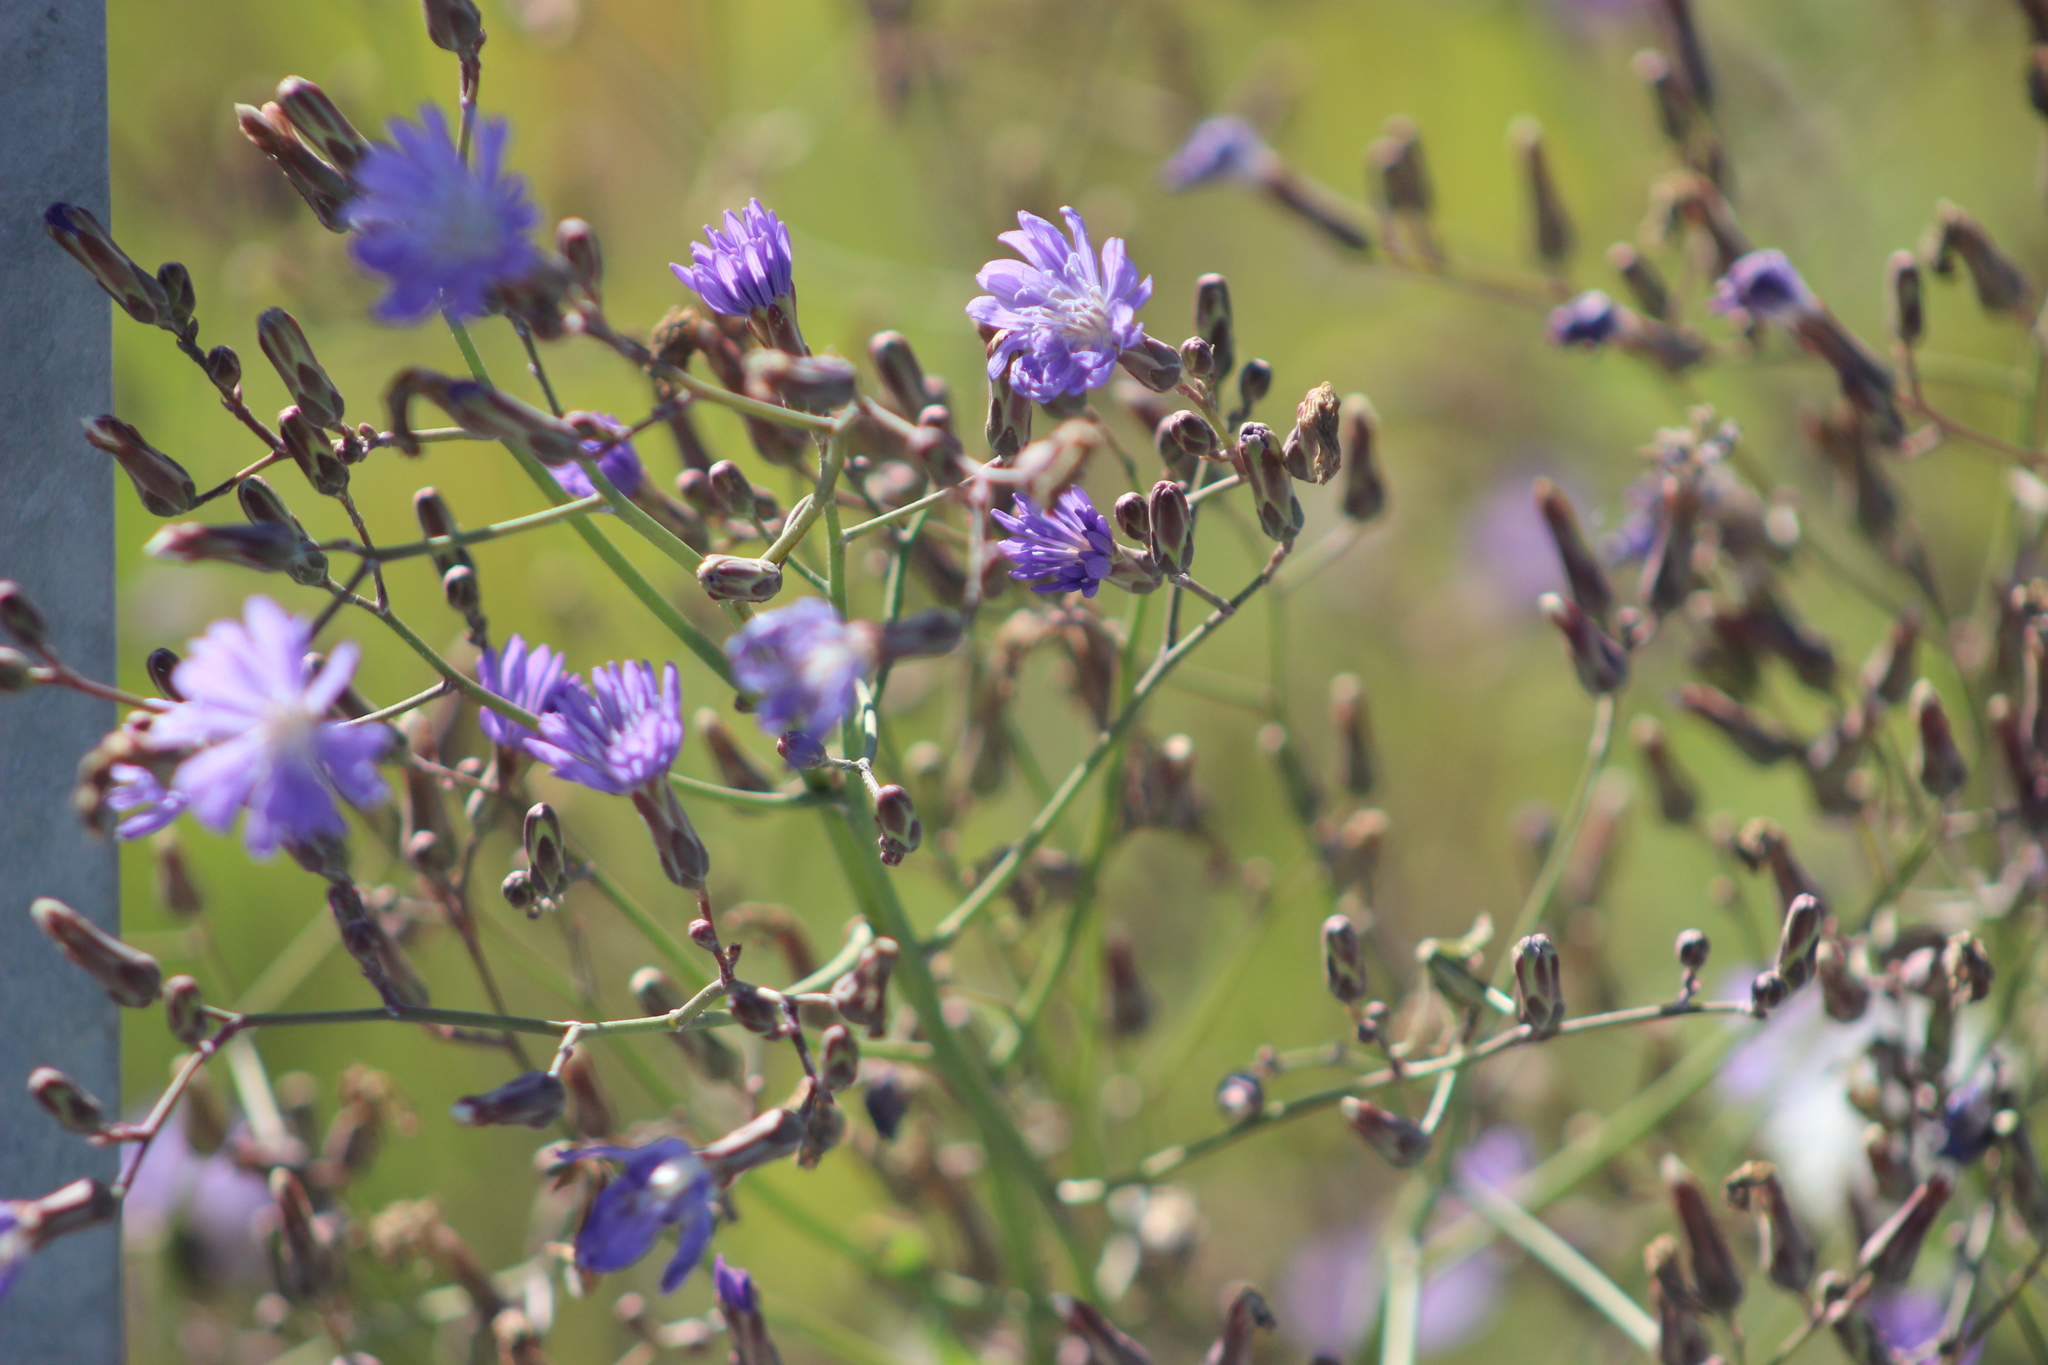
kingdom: Plantae
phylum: Tracheophyta
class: Magnoliopsida
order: Asterales
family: Asteraceae
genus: Lactuca
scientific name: Lactuca tatarica
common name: Blue lettuce
